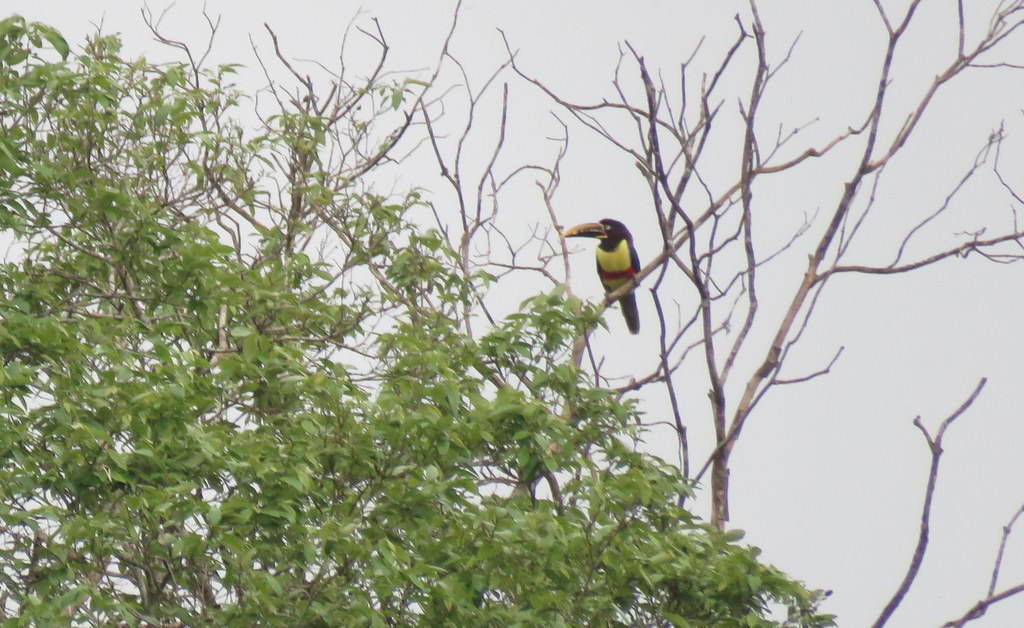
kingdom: Animalia
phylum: Chordata
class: Aves
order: Piciformes
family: Ramphastidae
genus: Pteroglossus
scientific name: Pteroglossus castanotis
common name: Chestnut-eared aracari
